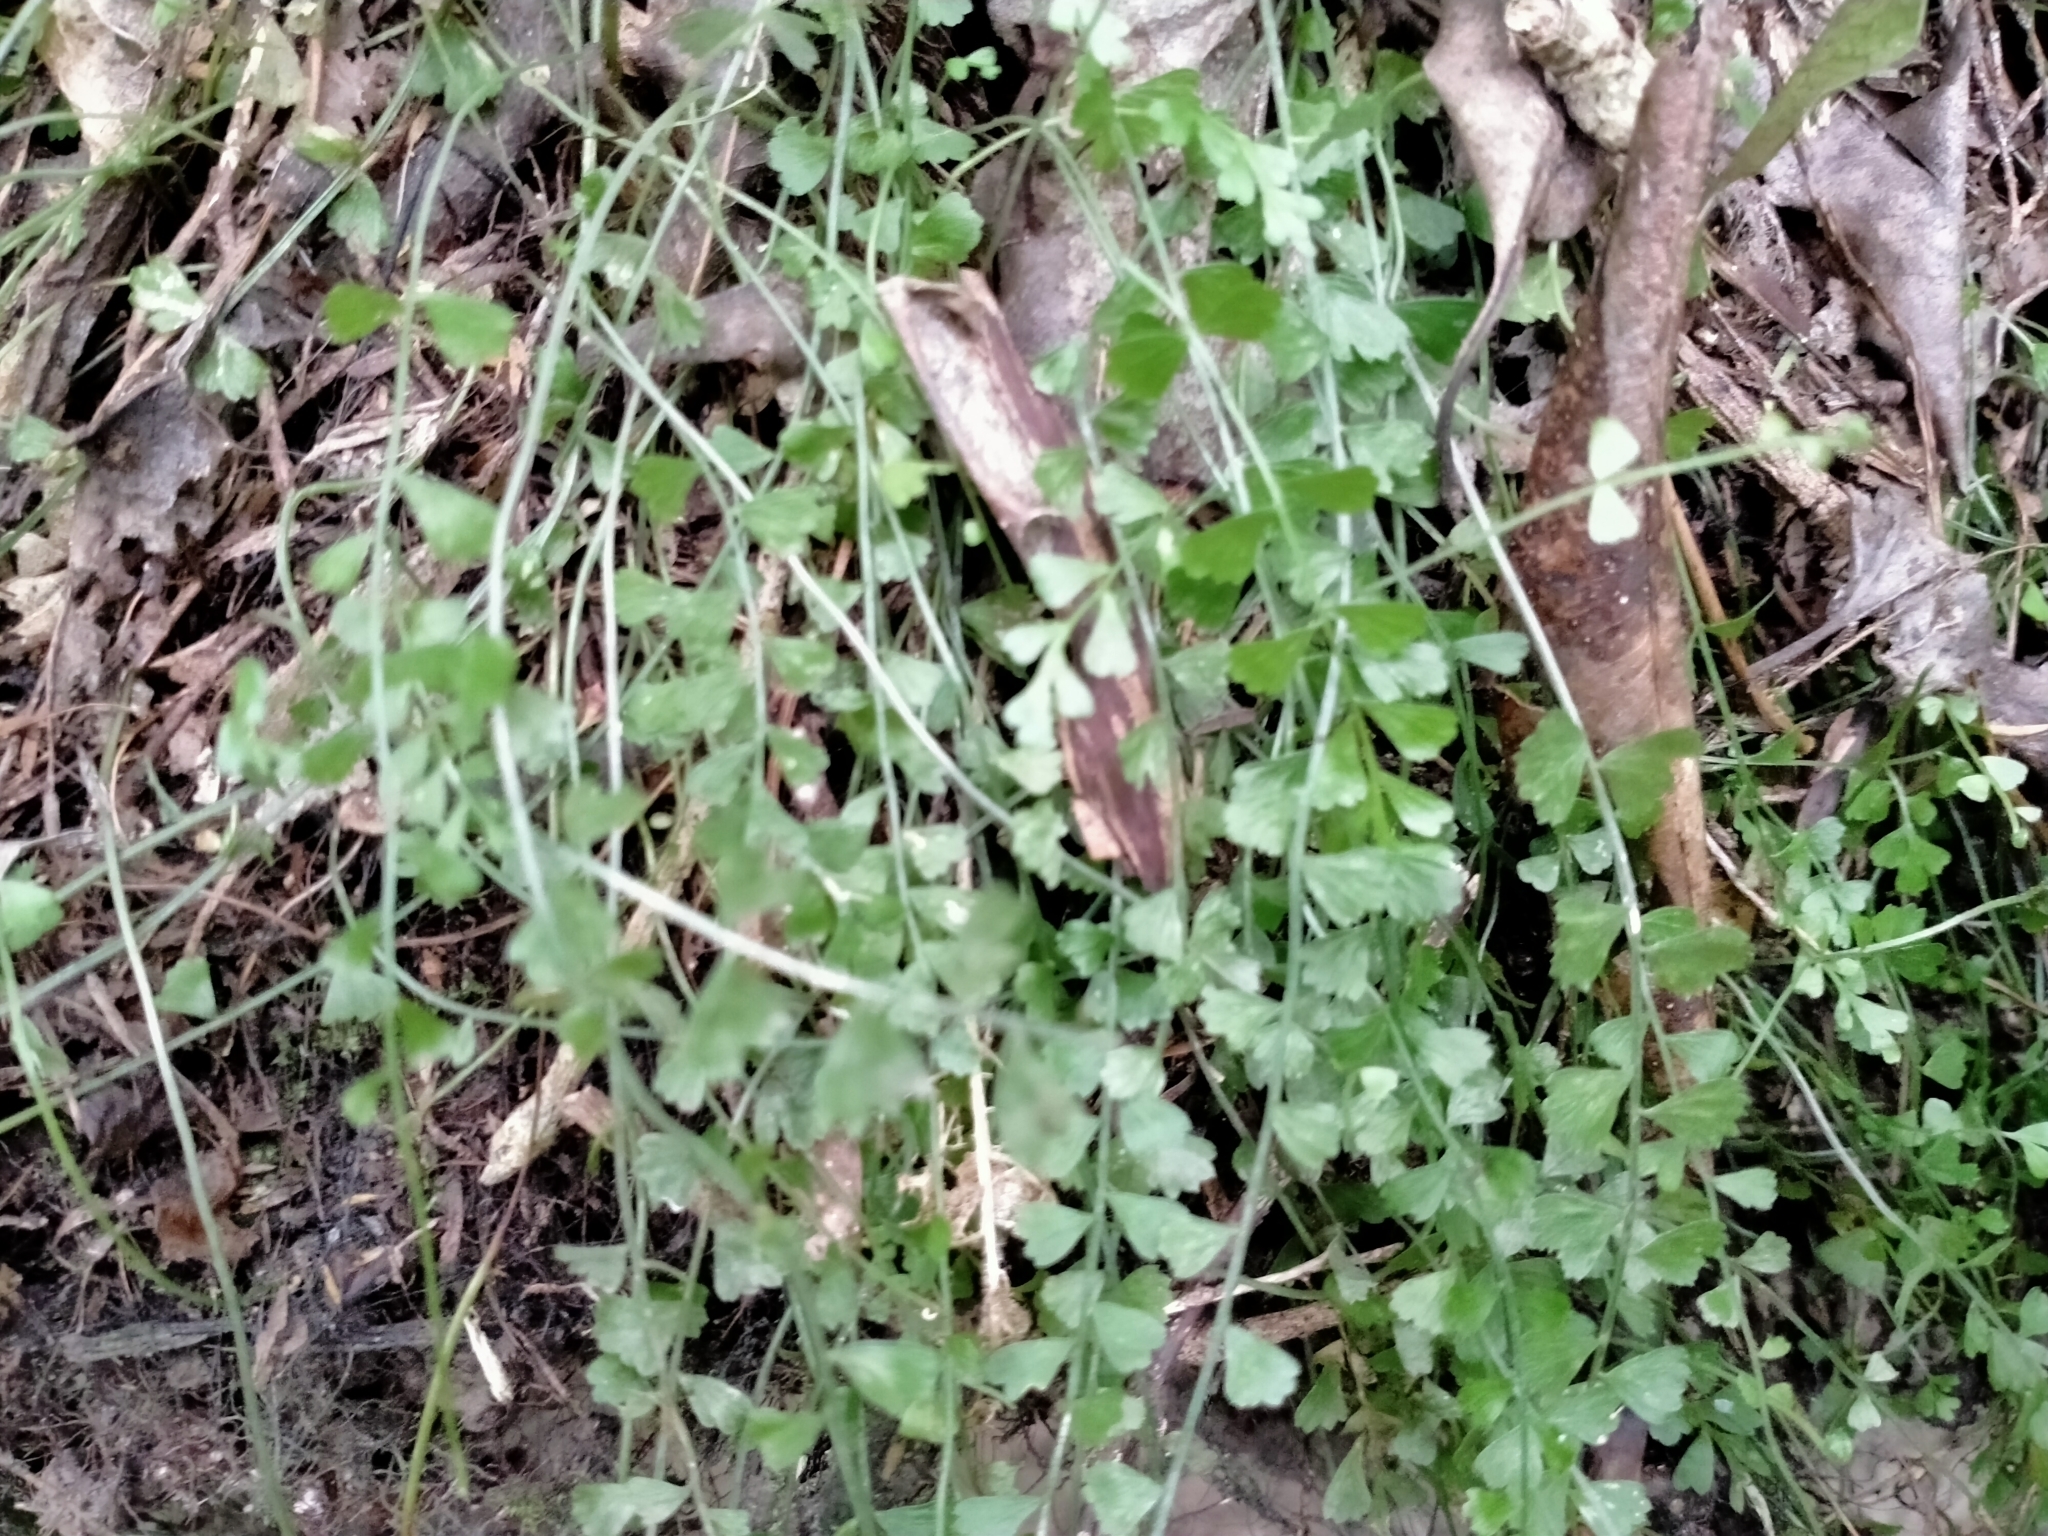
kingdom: Plantae
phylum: Tracheophyta
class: Polypodiopsida
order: Polypodiales
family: Aspleniaceae
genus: Asplenium
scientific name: Asplenium flabellifolium
